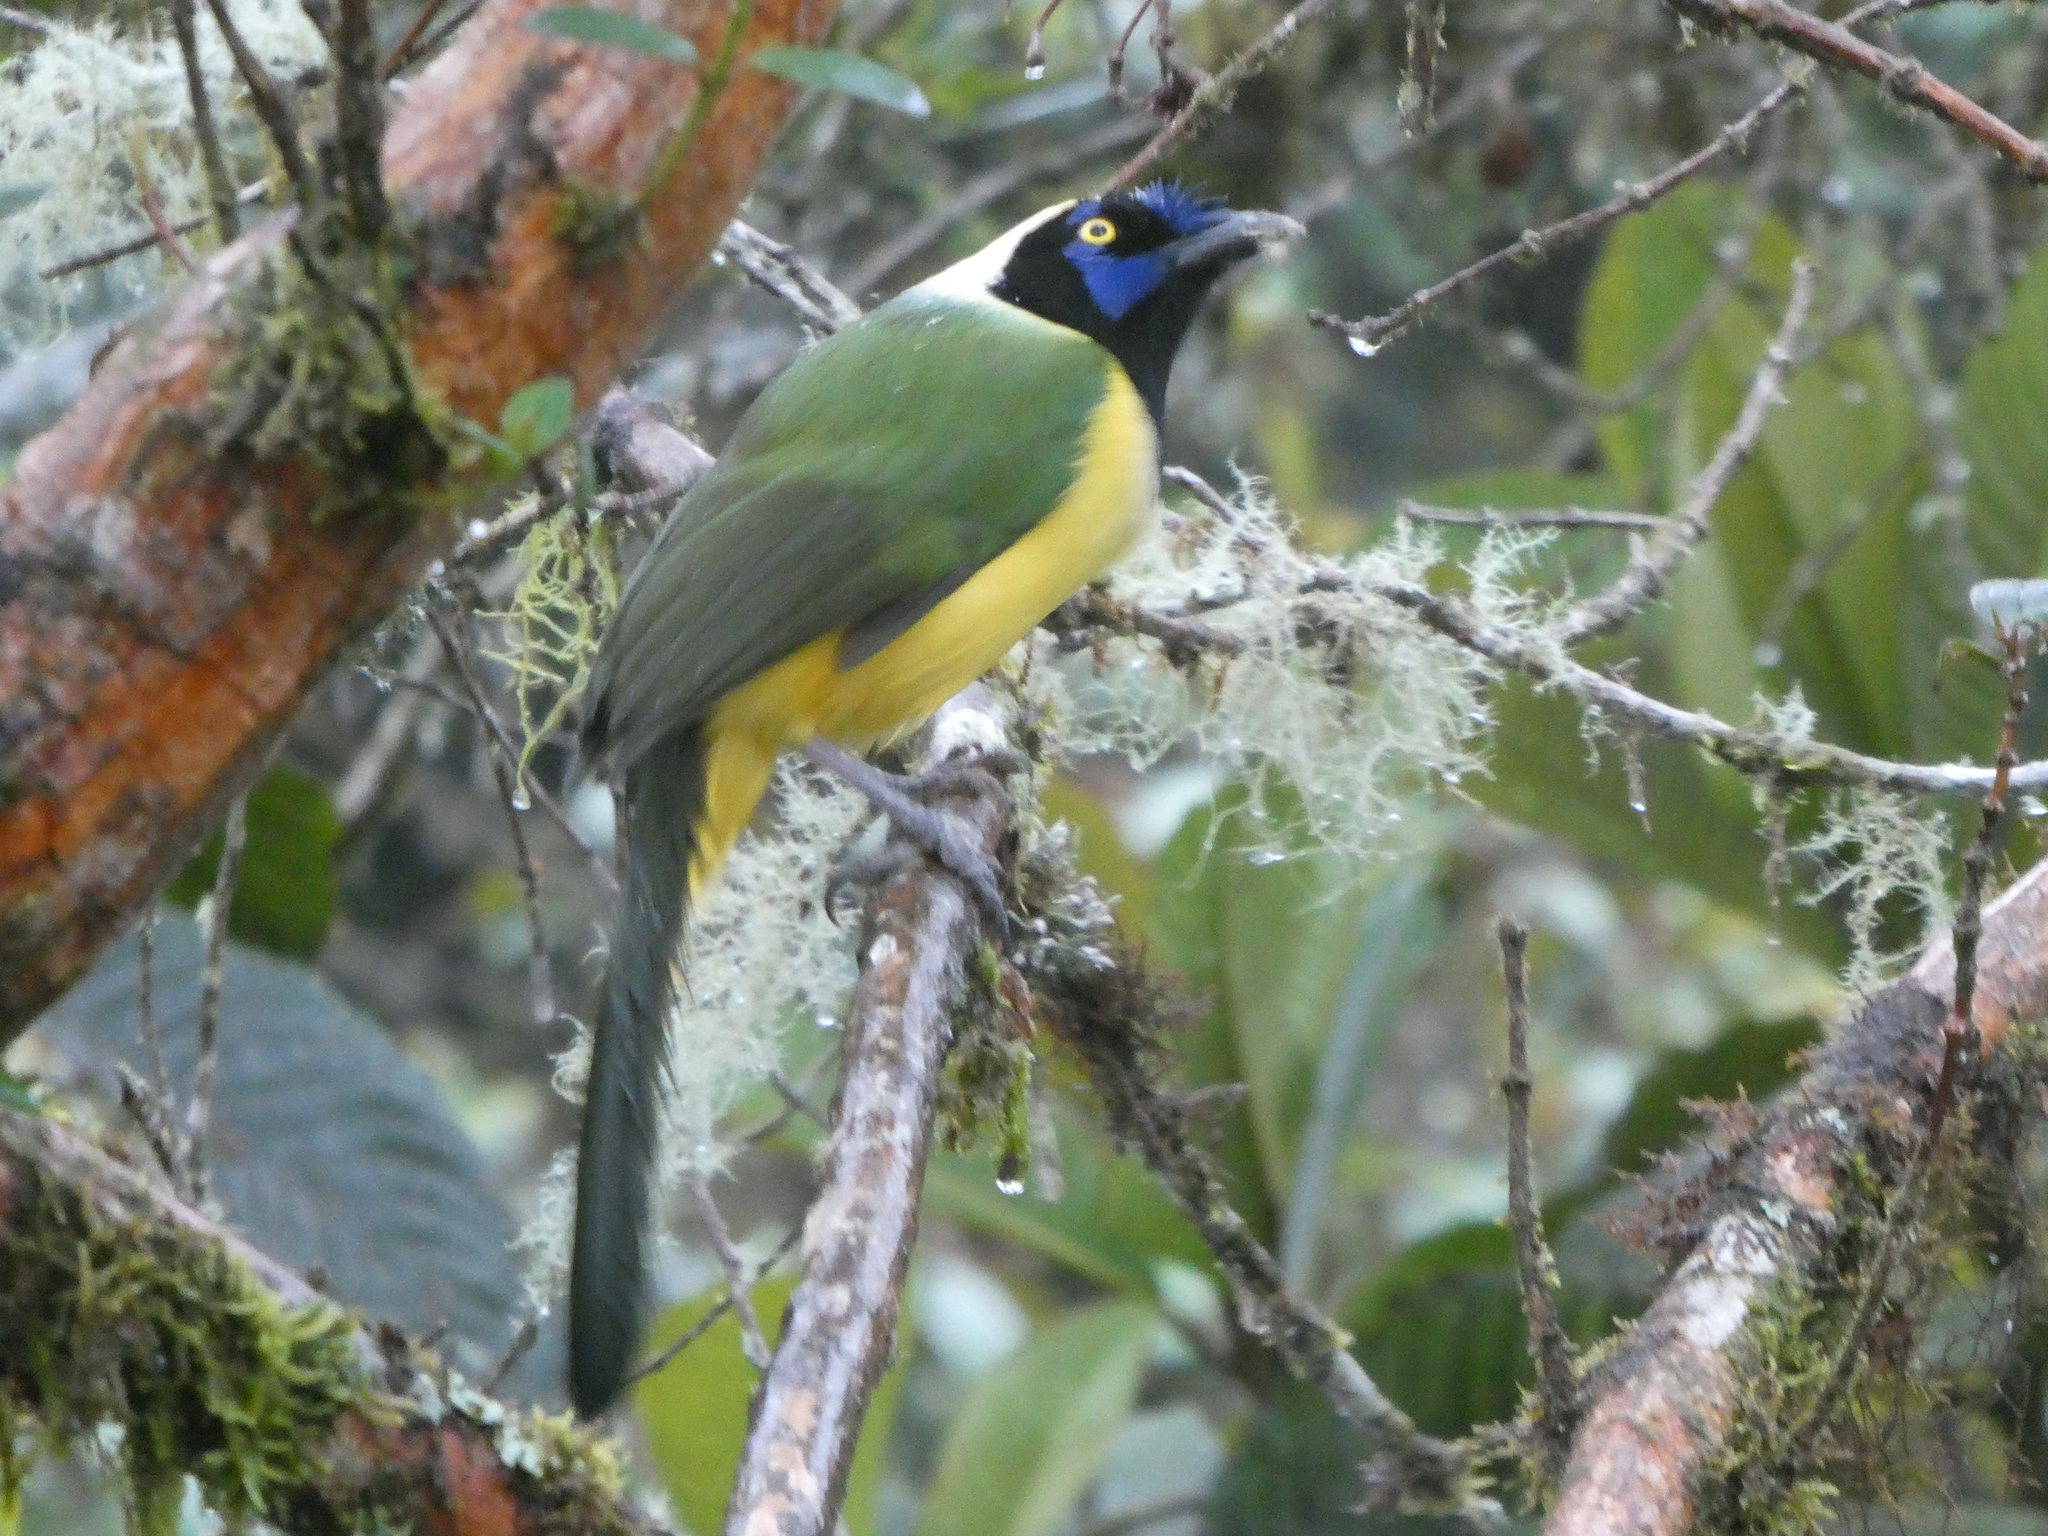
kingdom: Animalia
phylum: Chordata
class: Aves
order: Passeriformes
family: Corvidae
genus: Cyanocorax
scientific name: Cyanocorax yncas
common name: Green jay
